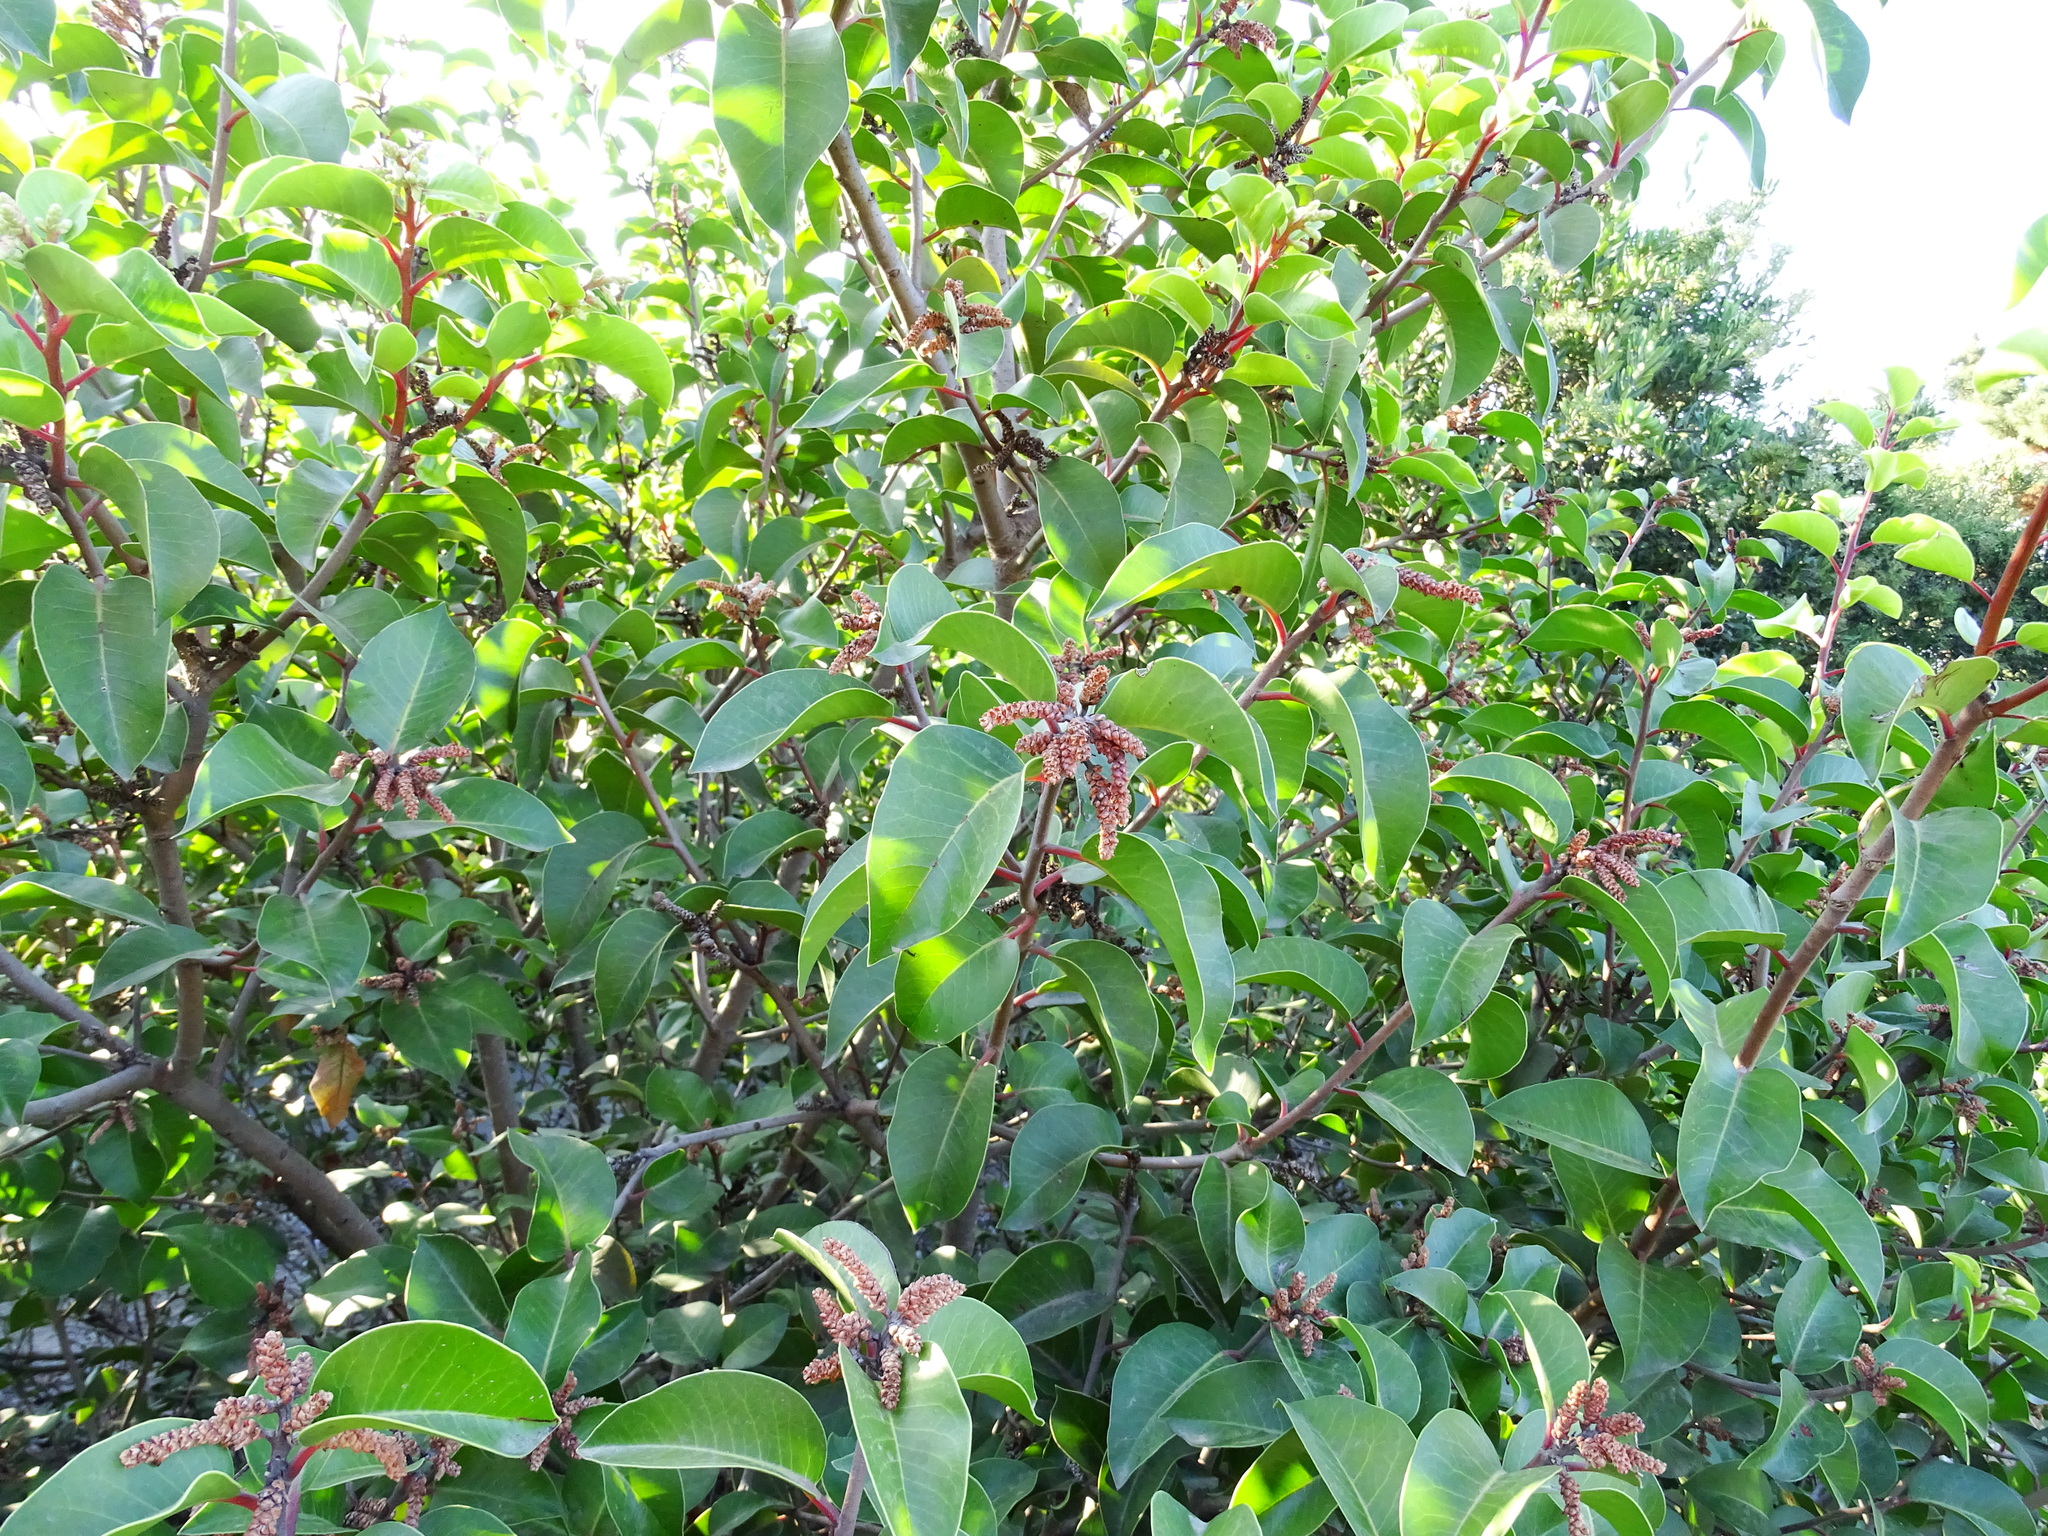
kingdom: Plantae
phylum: Tracheophyta
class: Magnoliopsida
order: Sapindales
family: Anacardiaceae
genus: Rhus
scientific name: Rhus ovata
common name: Sugar sumac
